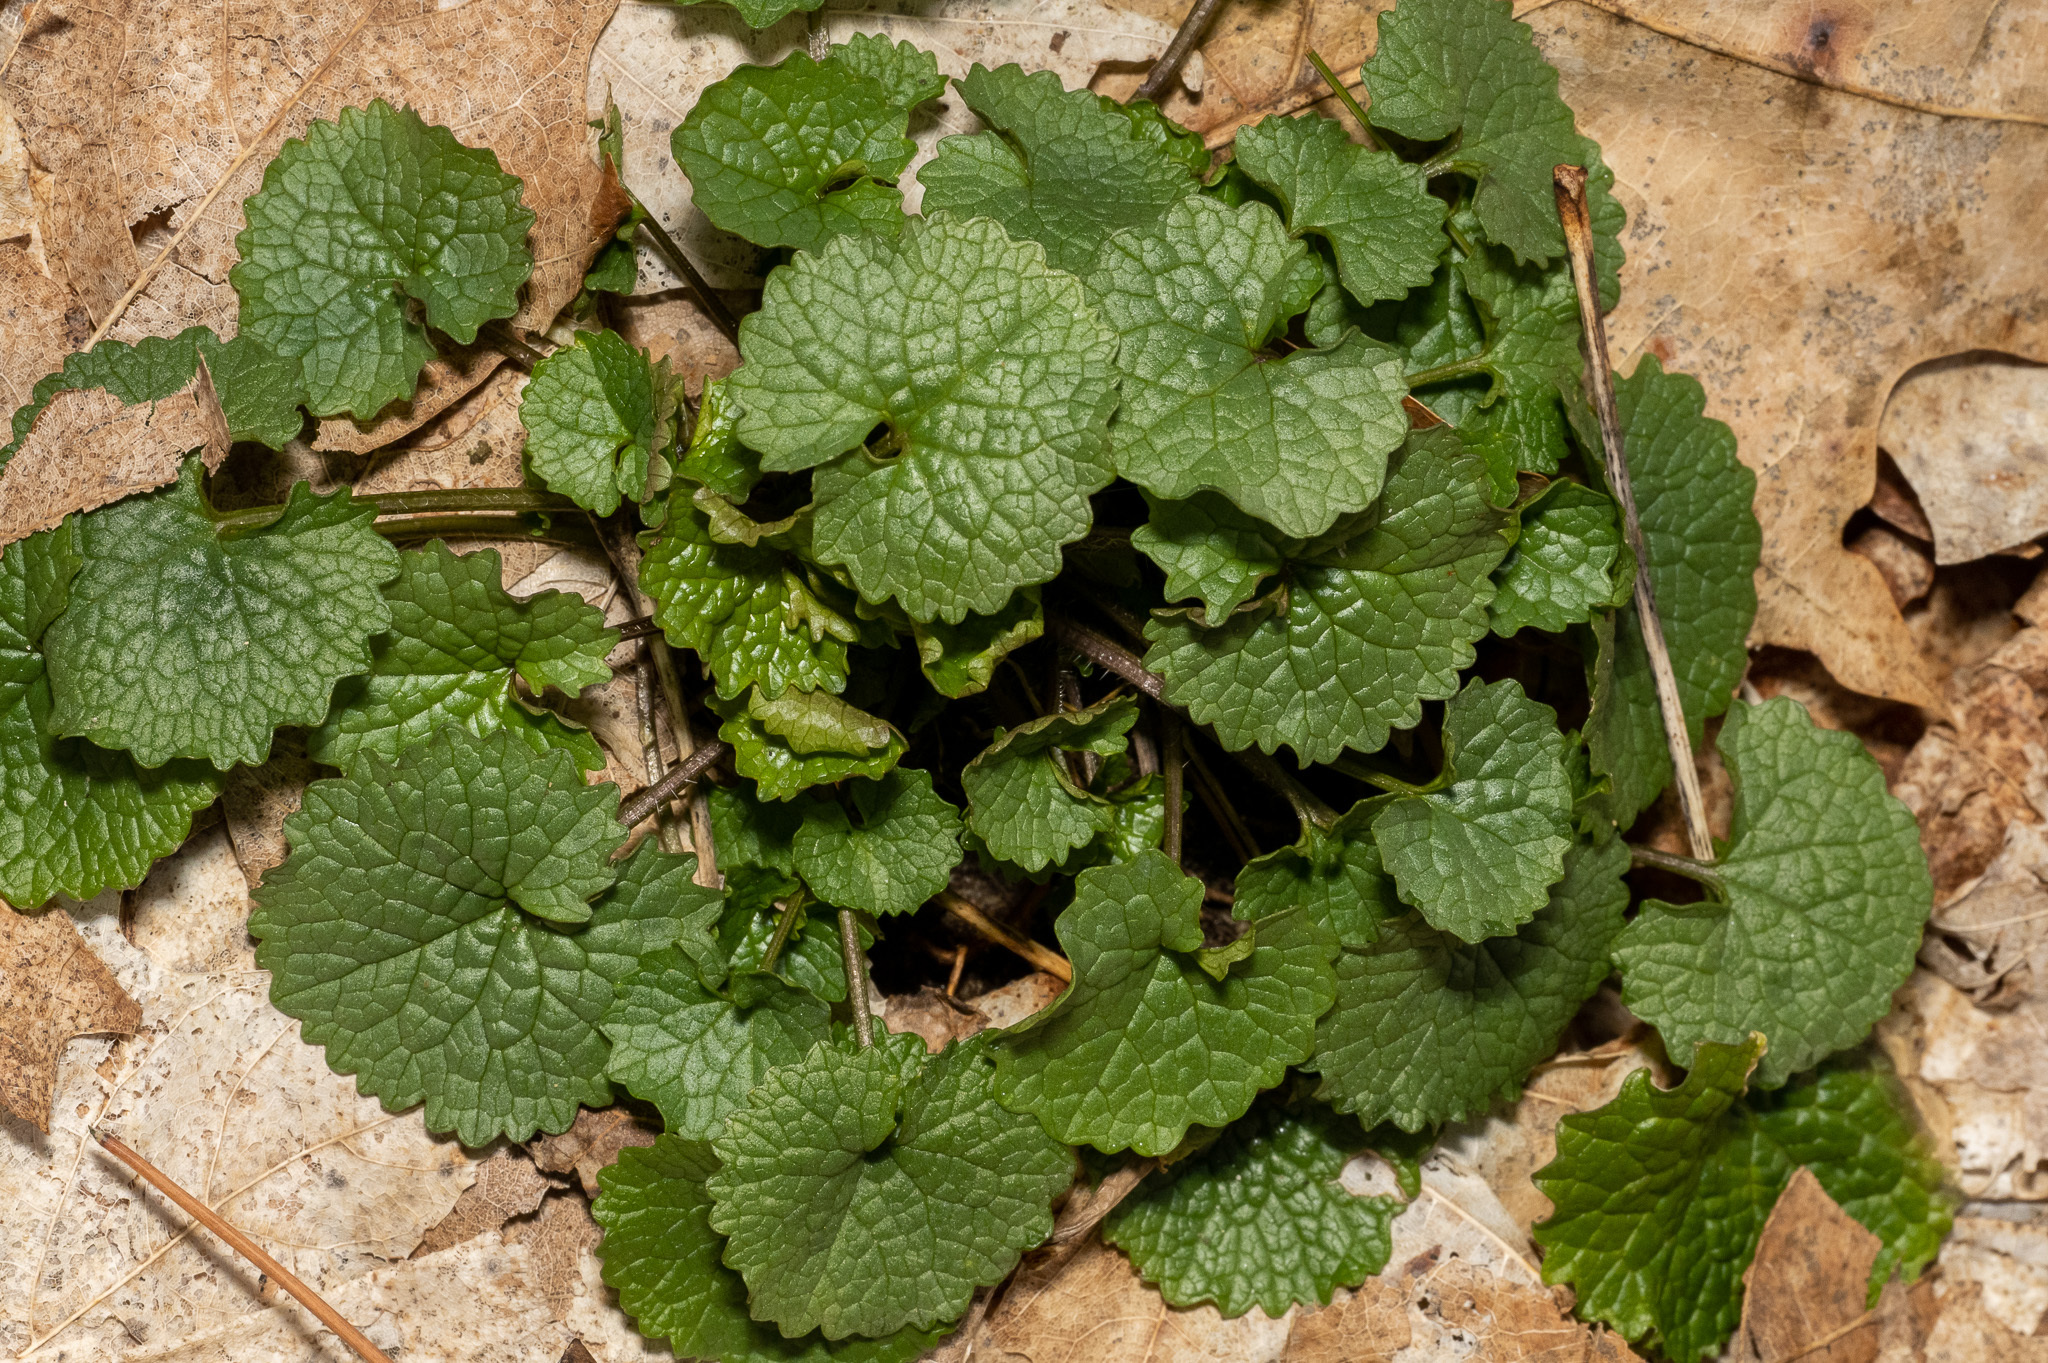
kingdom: Plantae
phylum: Tracheophyta
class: Magnoliopsida
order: Brassicales
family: Brassicaceae
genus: Alliaria
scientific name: Alliaria petiolata
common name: Garlic mustard
